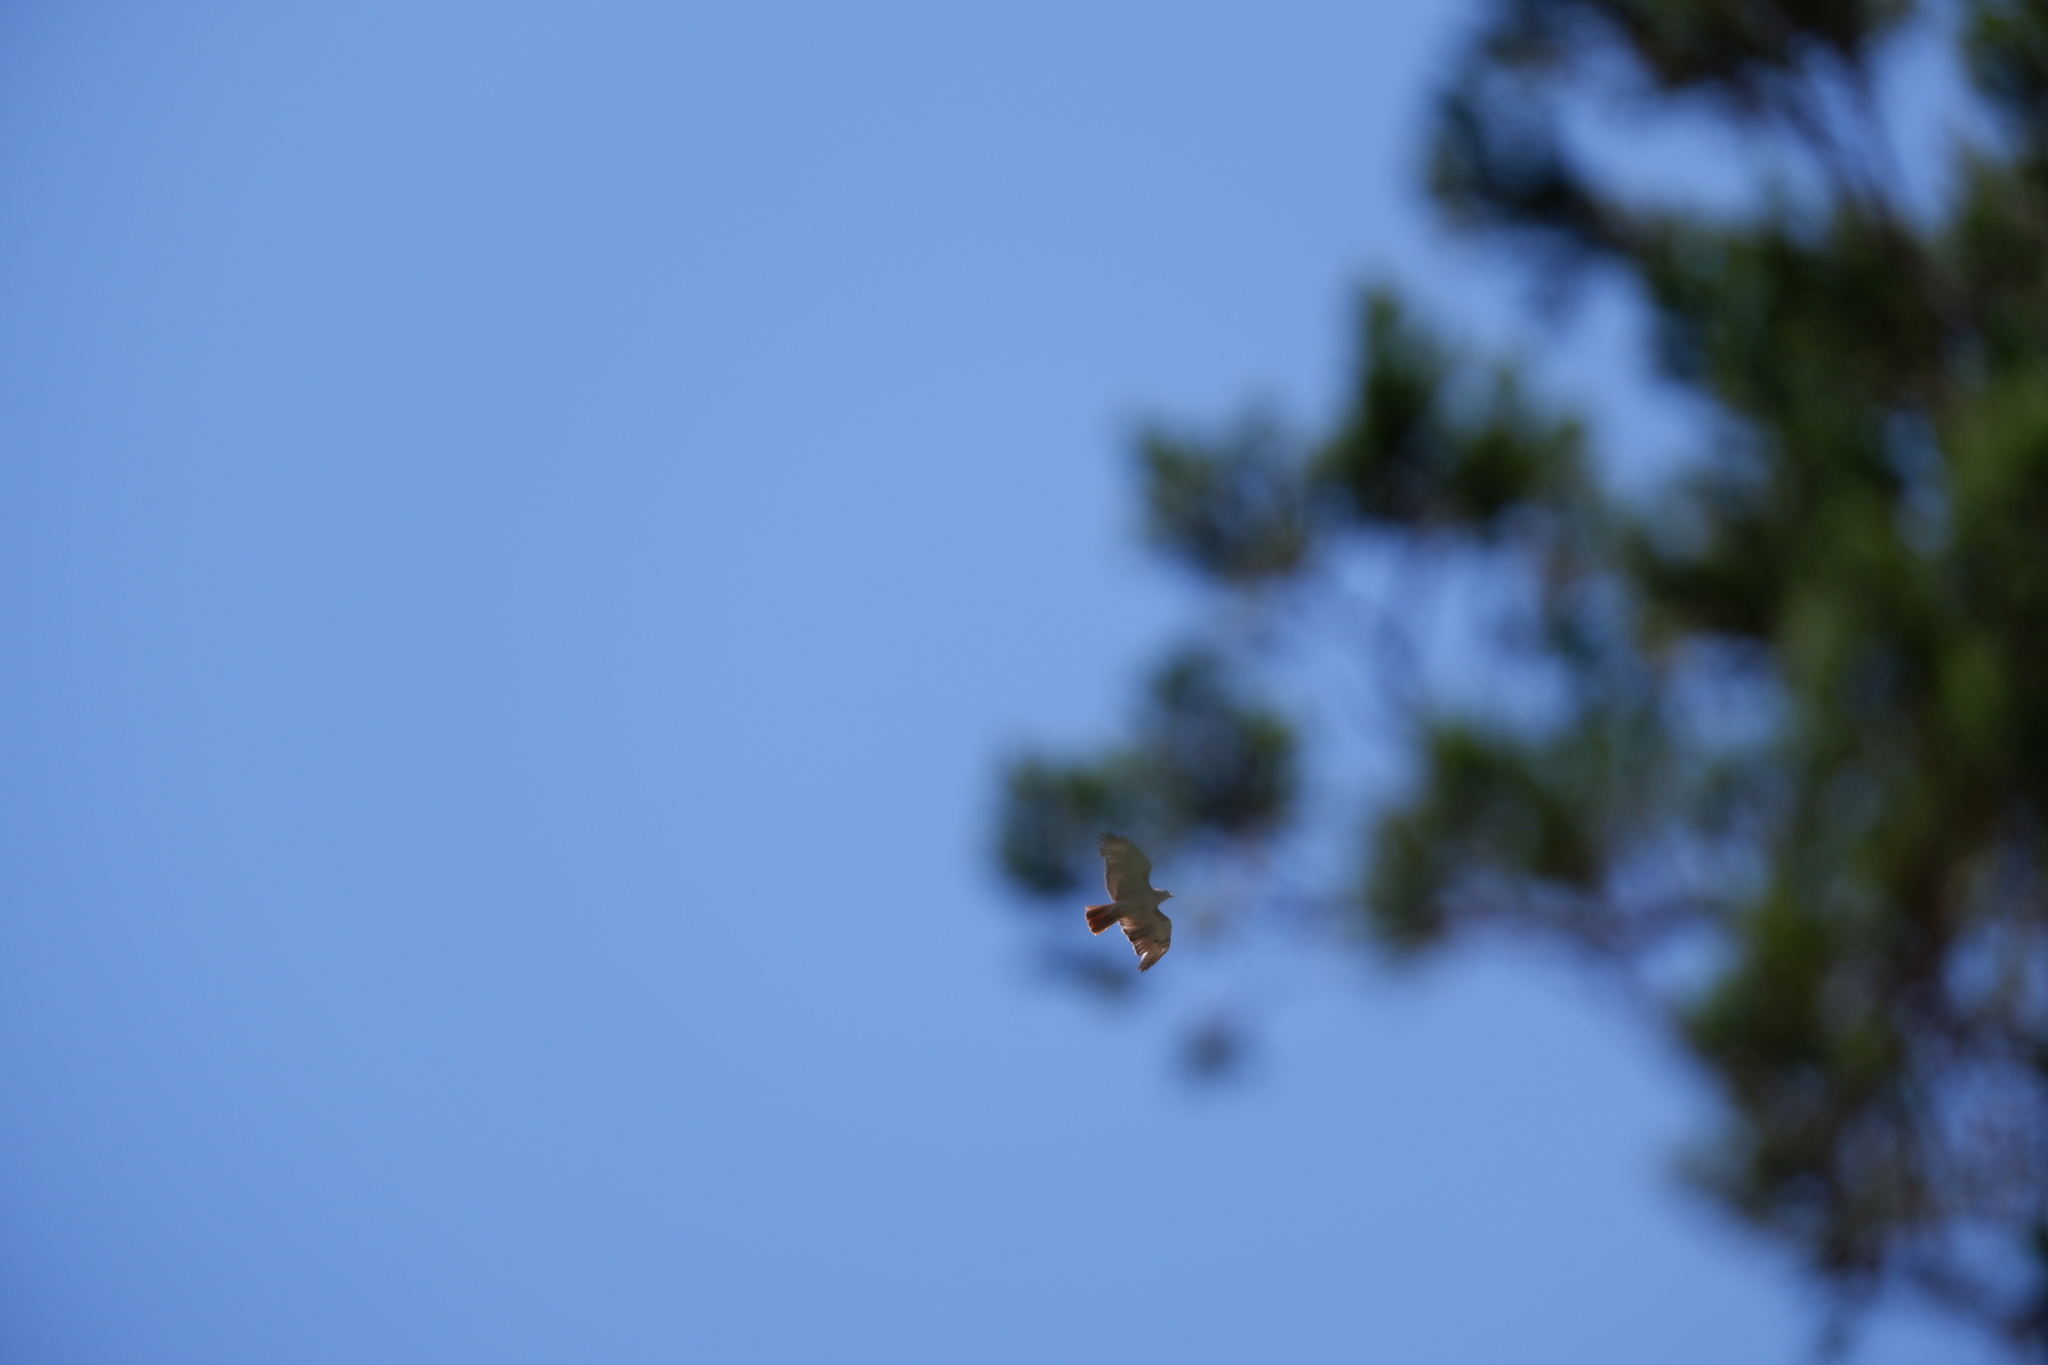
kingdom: Animalia
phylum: Chordata
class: Aves
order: Accipitriformes
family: Accipitridae
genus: Buteo
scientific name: Buteo jamaicensis
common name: Red-tailed hawk
